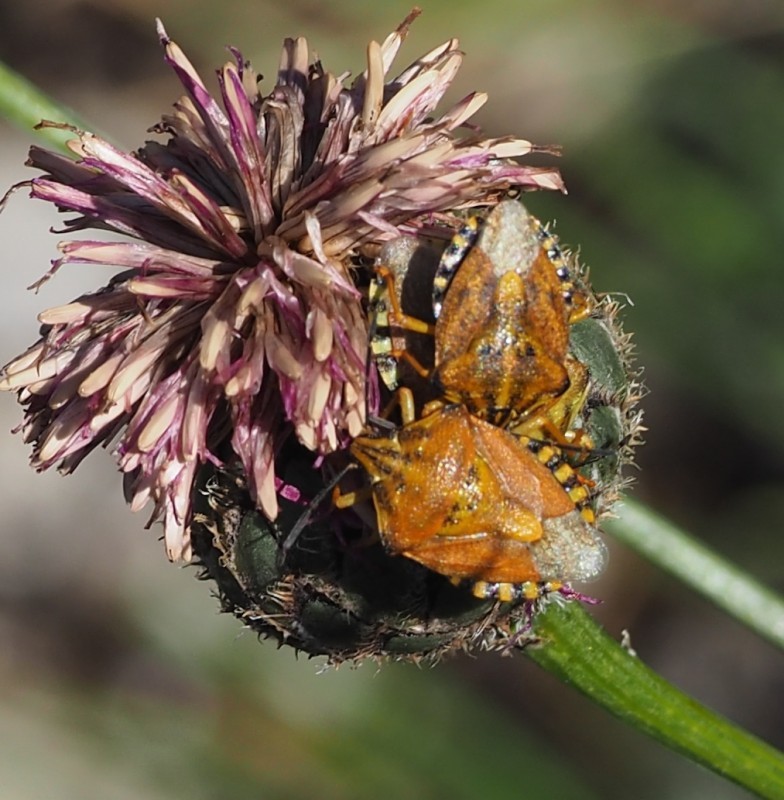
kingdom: Animalia
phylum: Arthropoda
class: Insecta
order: Hemiptera
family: Pentatomidae
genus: Carpocoris
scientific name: Carpocoris purpureipennis
